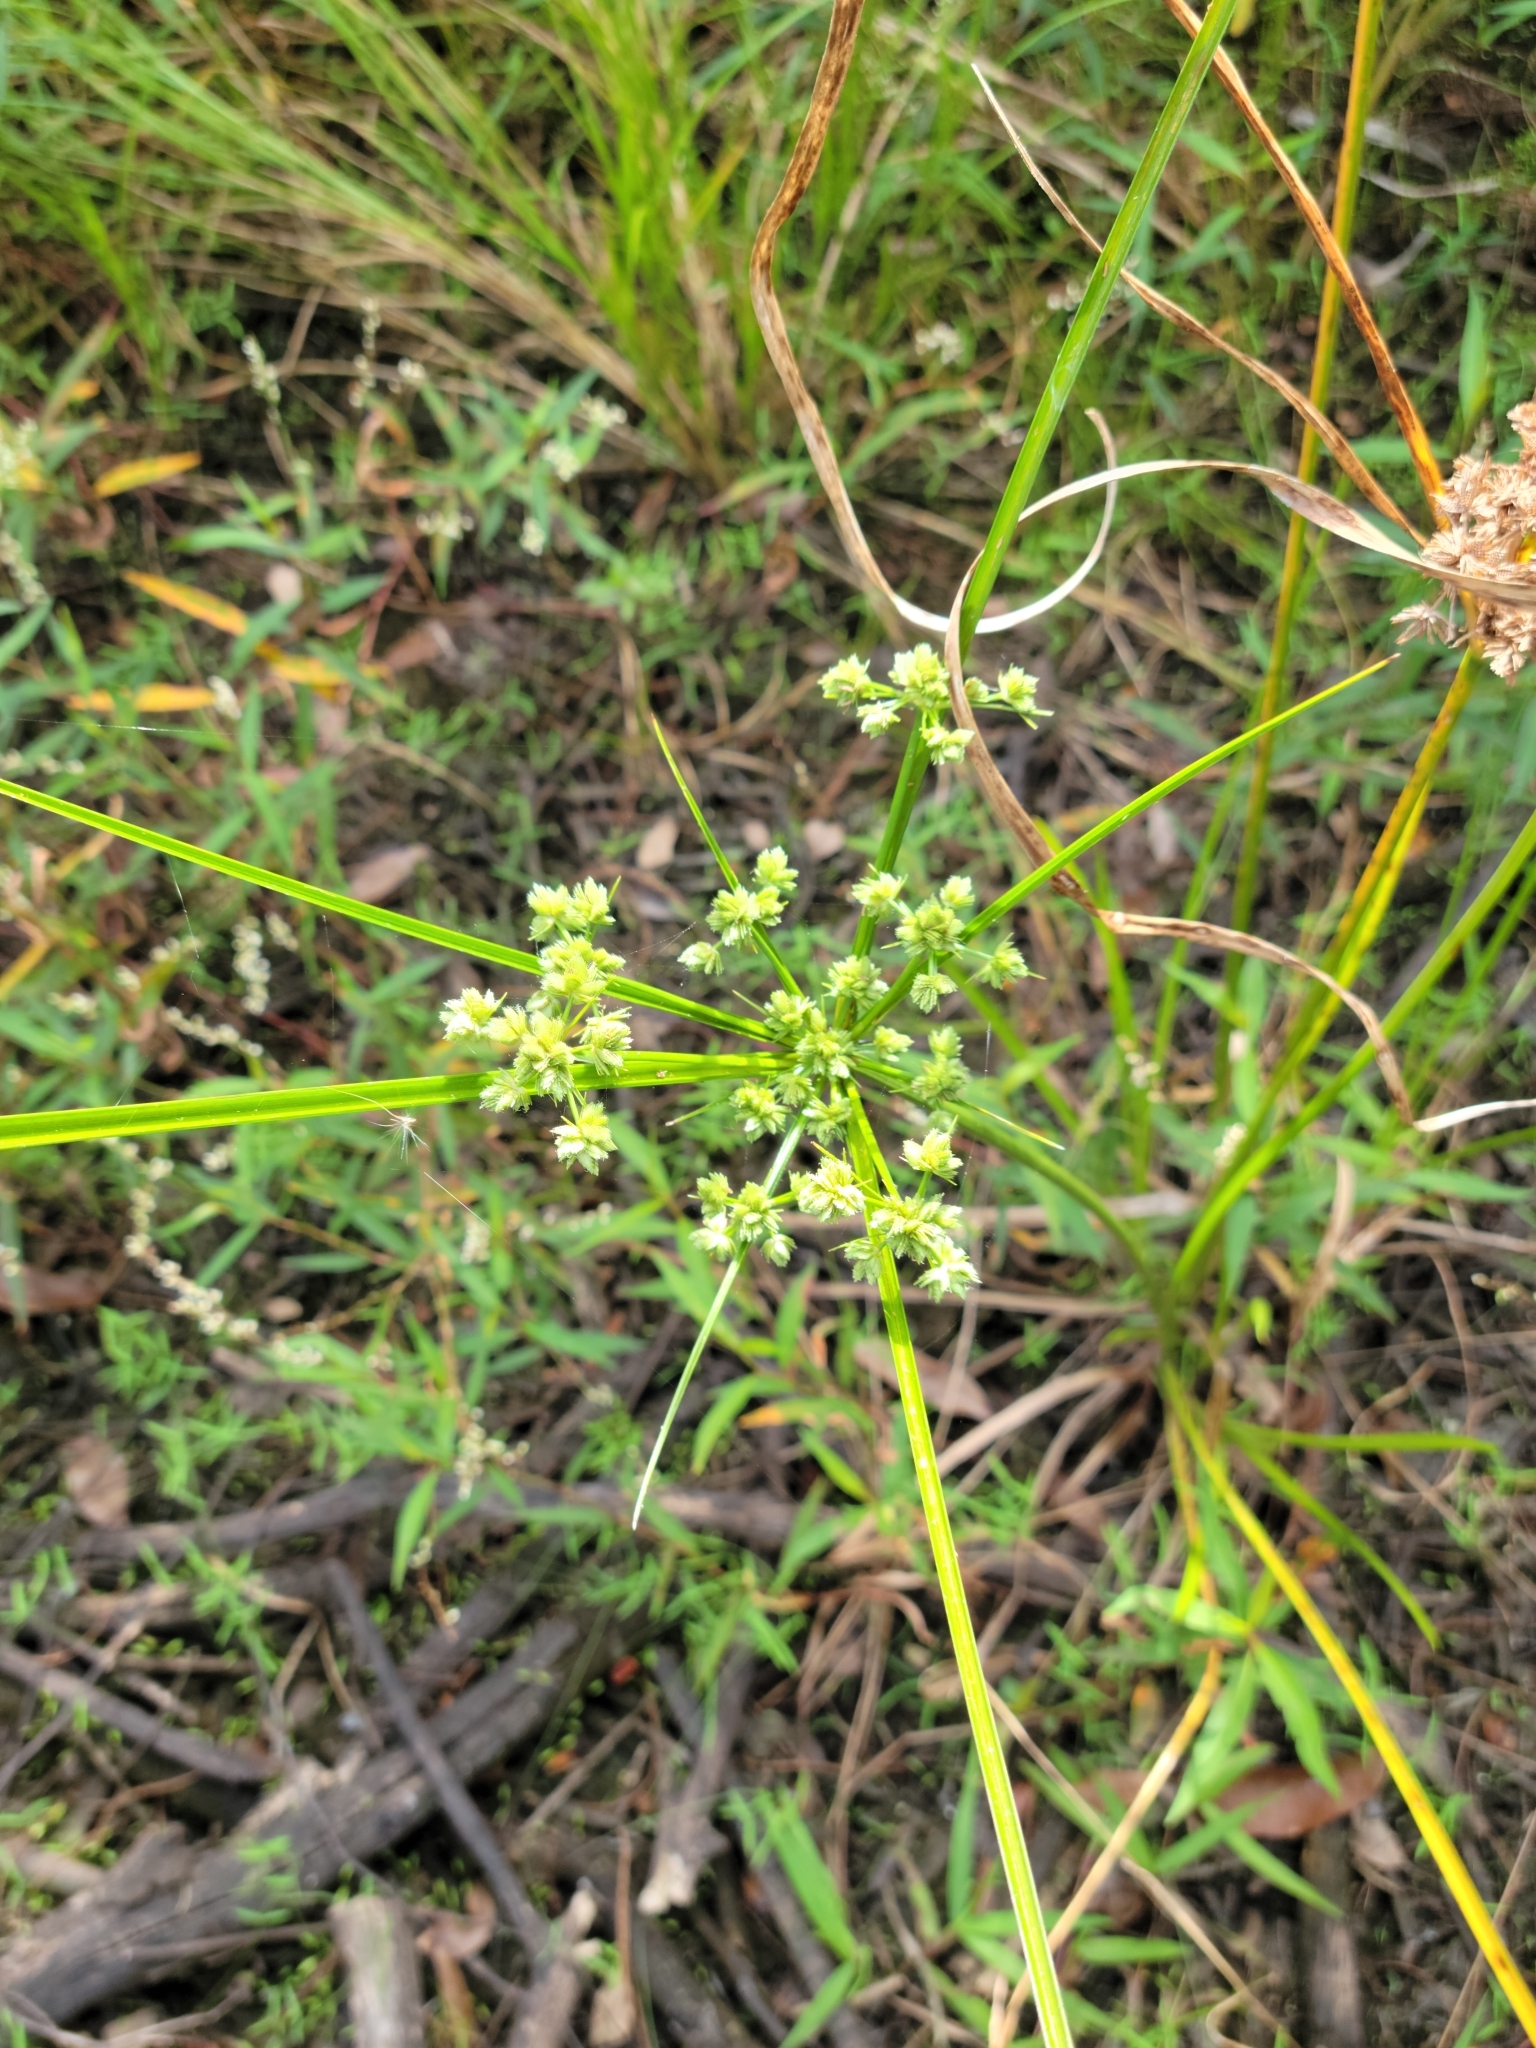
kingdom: Plantae
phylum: Tracheophyta
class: Liliopsida
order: Poales
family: Cyperaceae
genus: Cyperus
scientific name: Cyperus distinctus
